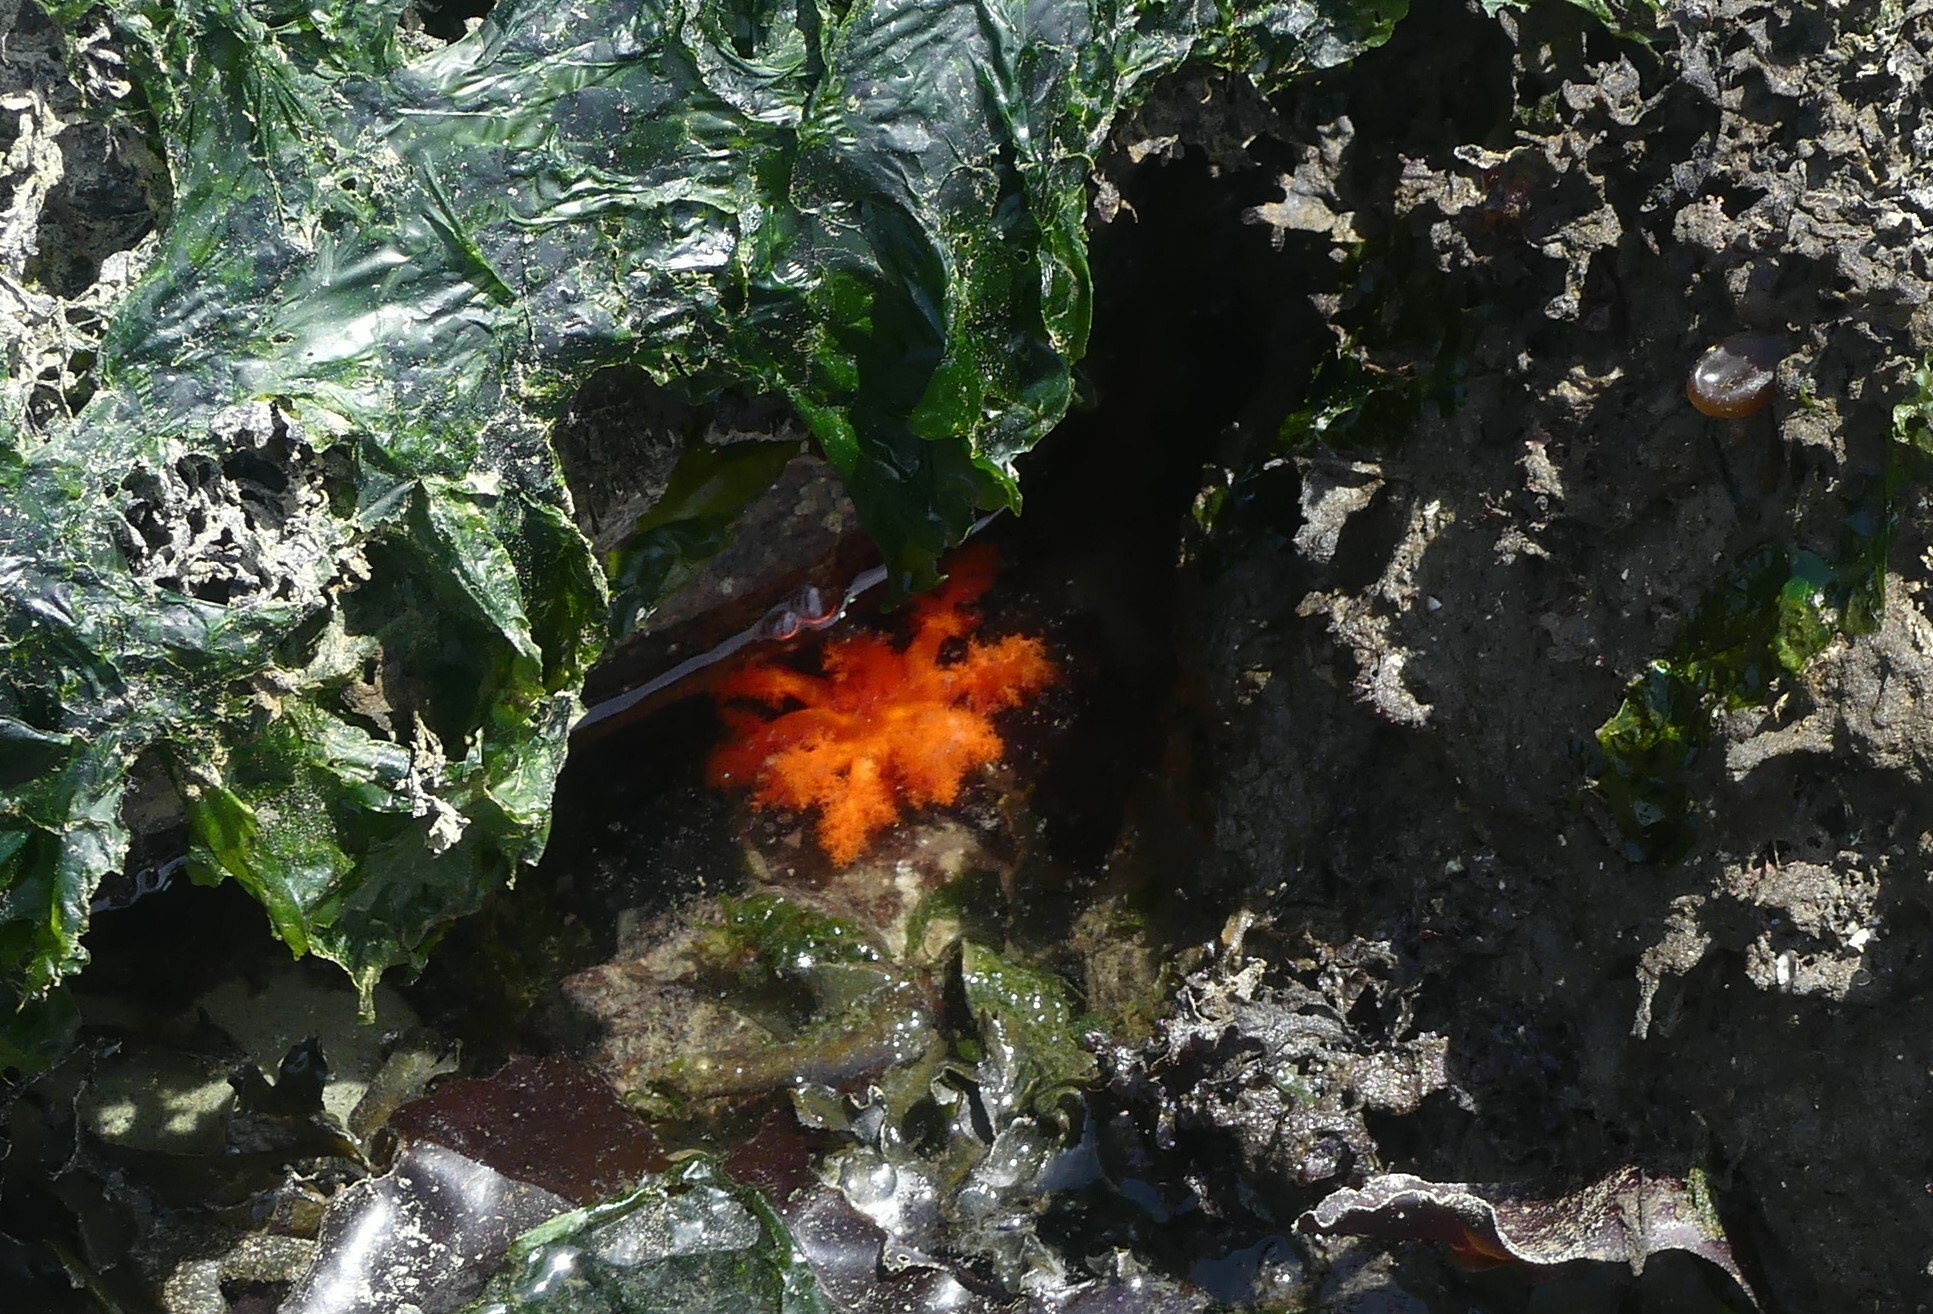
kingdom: Animalia
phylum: Echinodermata
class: Holothuroidea
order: Dendrochirotida
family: Cucumariidae
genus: Cucumaria
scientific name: Cucumaria miniata
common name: Orange sea cucumber
